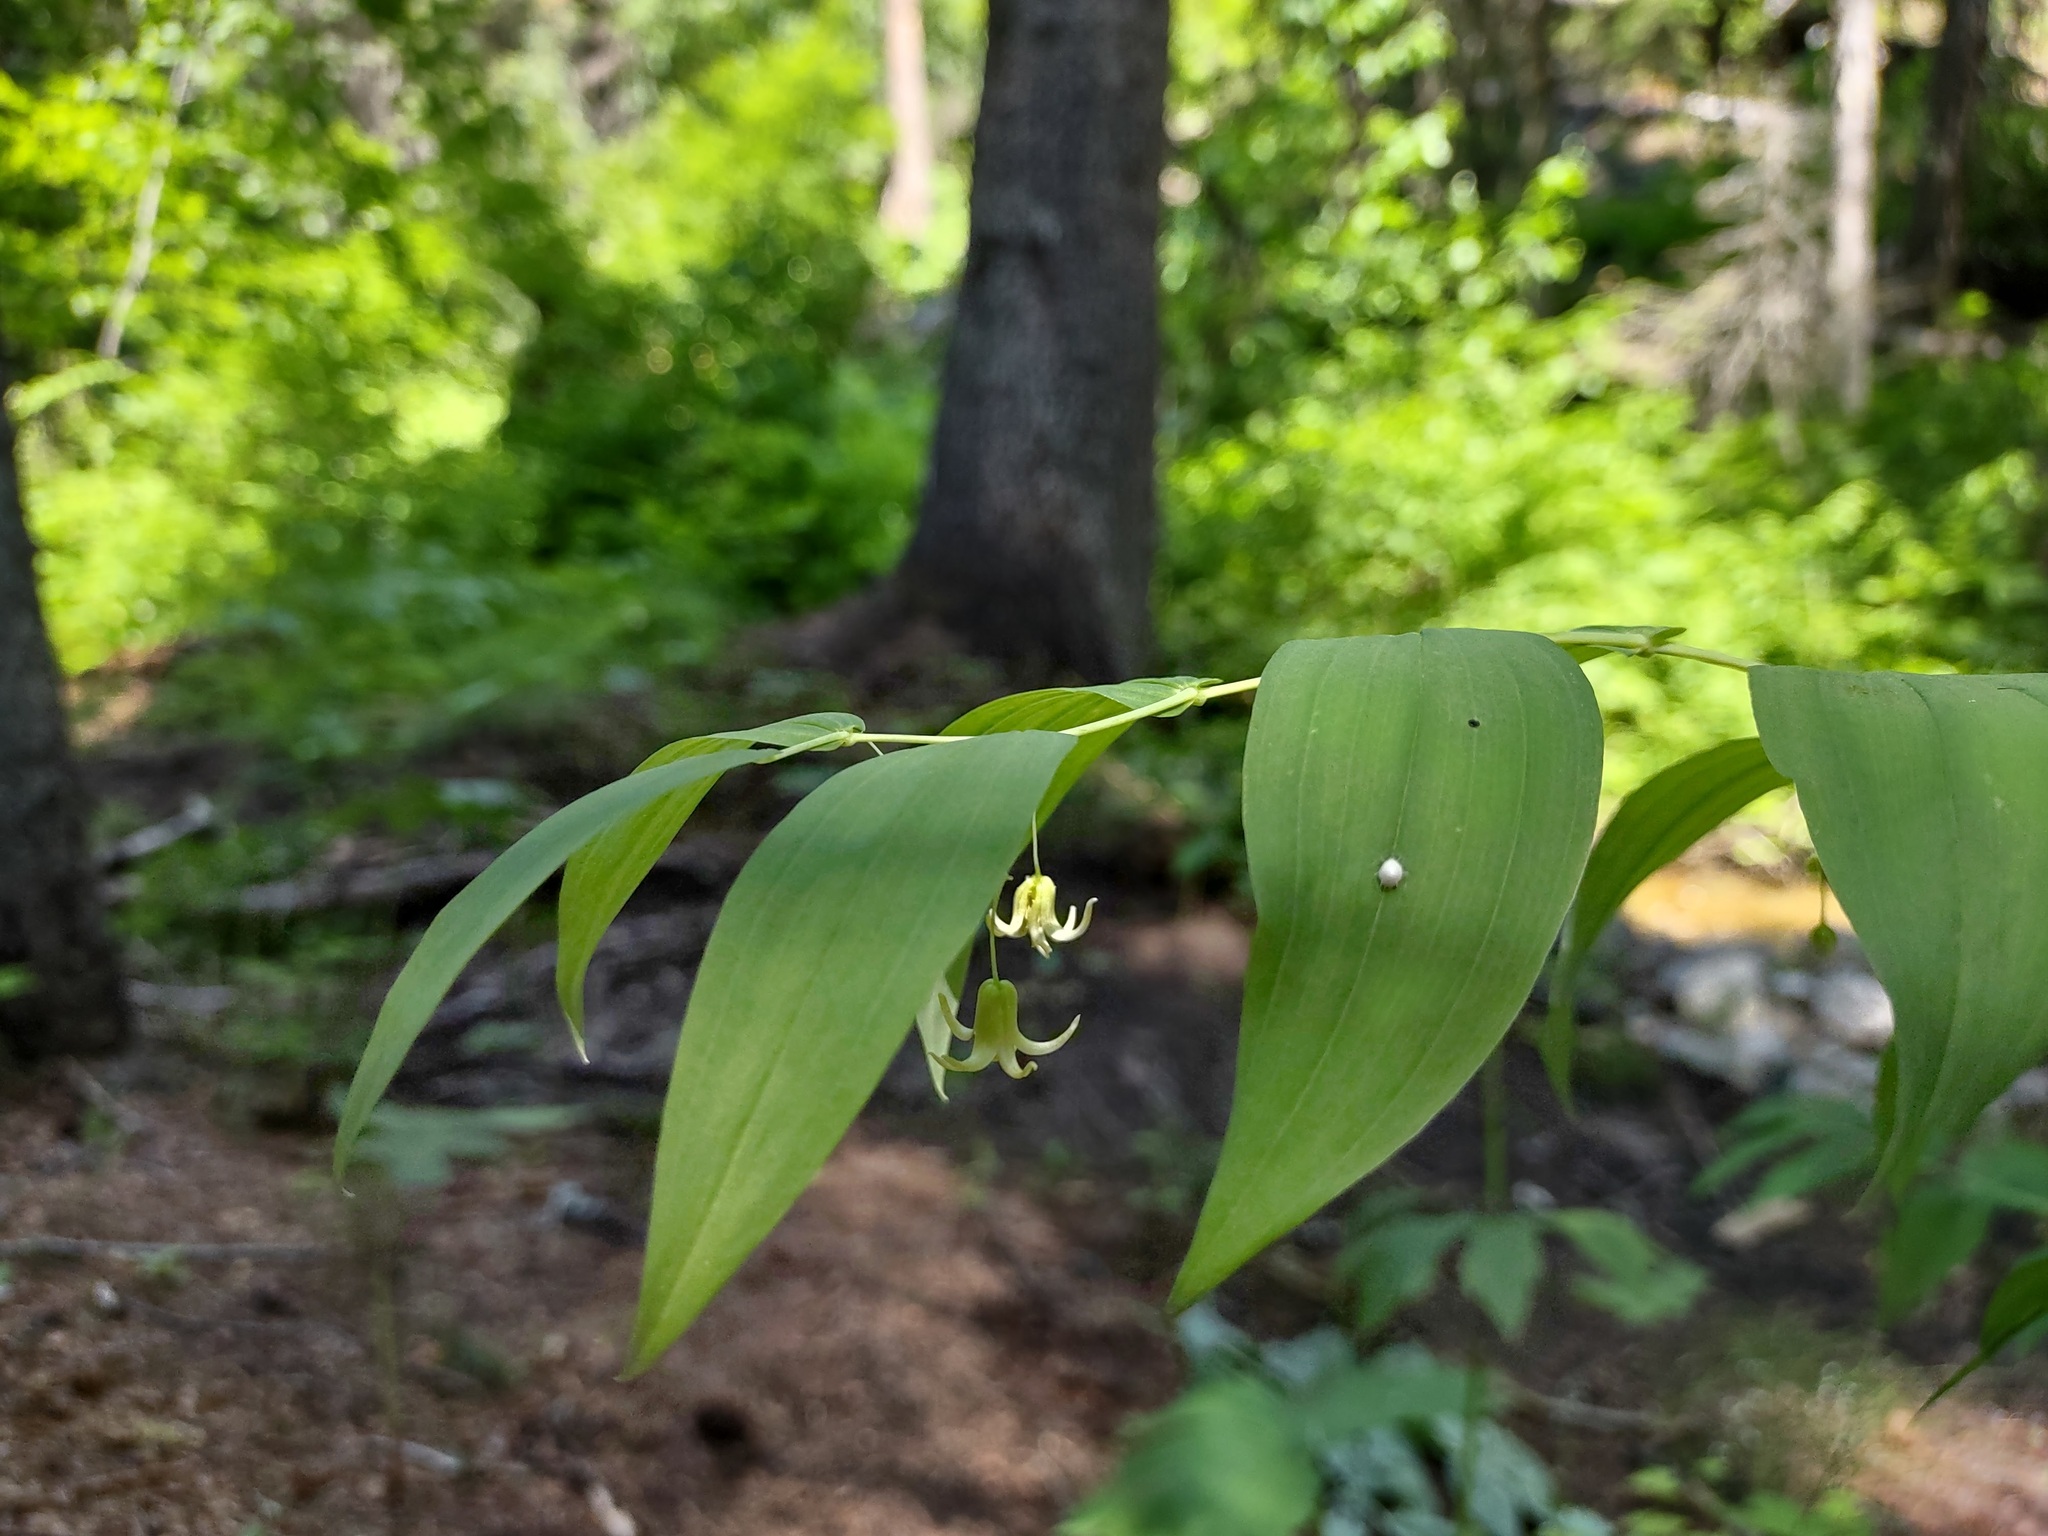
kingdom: Plantae
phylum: Tracheophyta
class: Liliopsida
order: Liliales
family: Liliaceae
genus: Streptopus
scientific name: Streptopus amplexifolius
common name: Clasp twisted stalk
